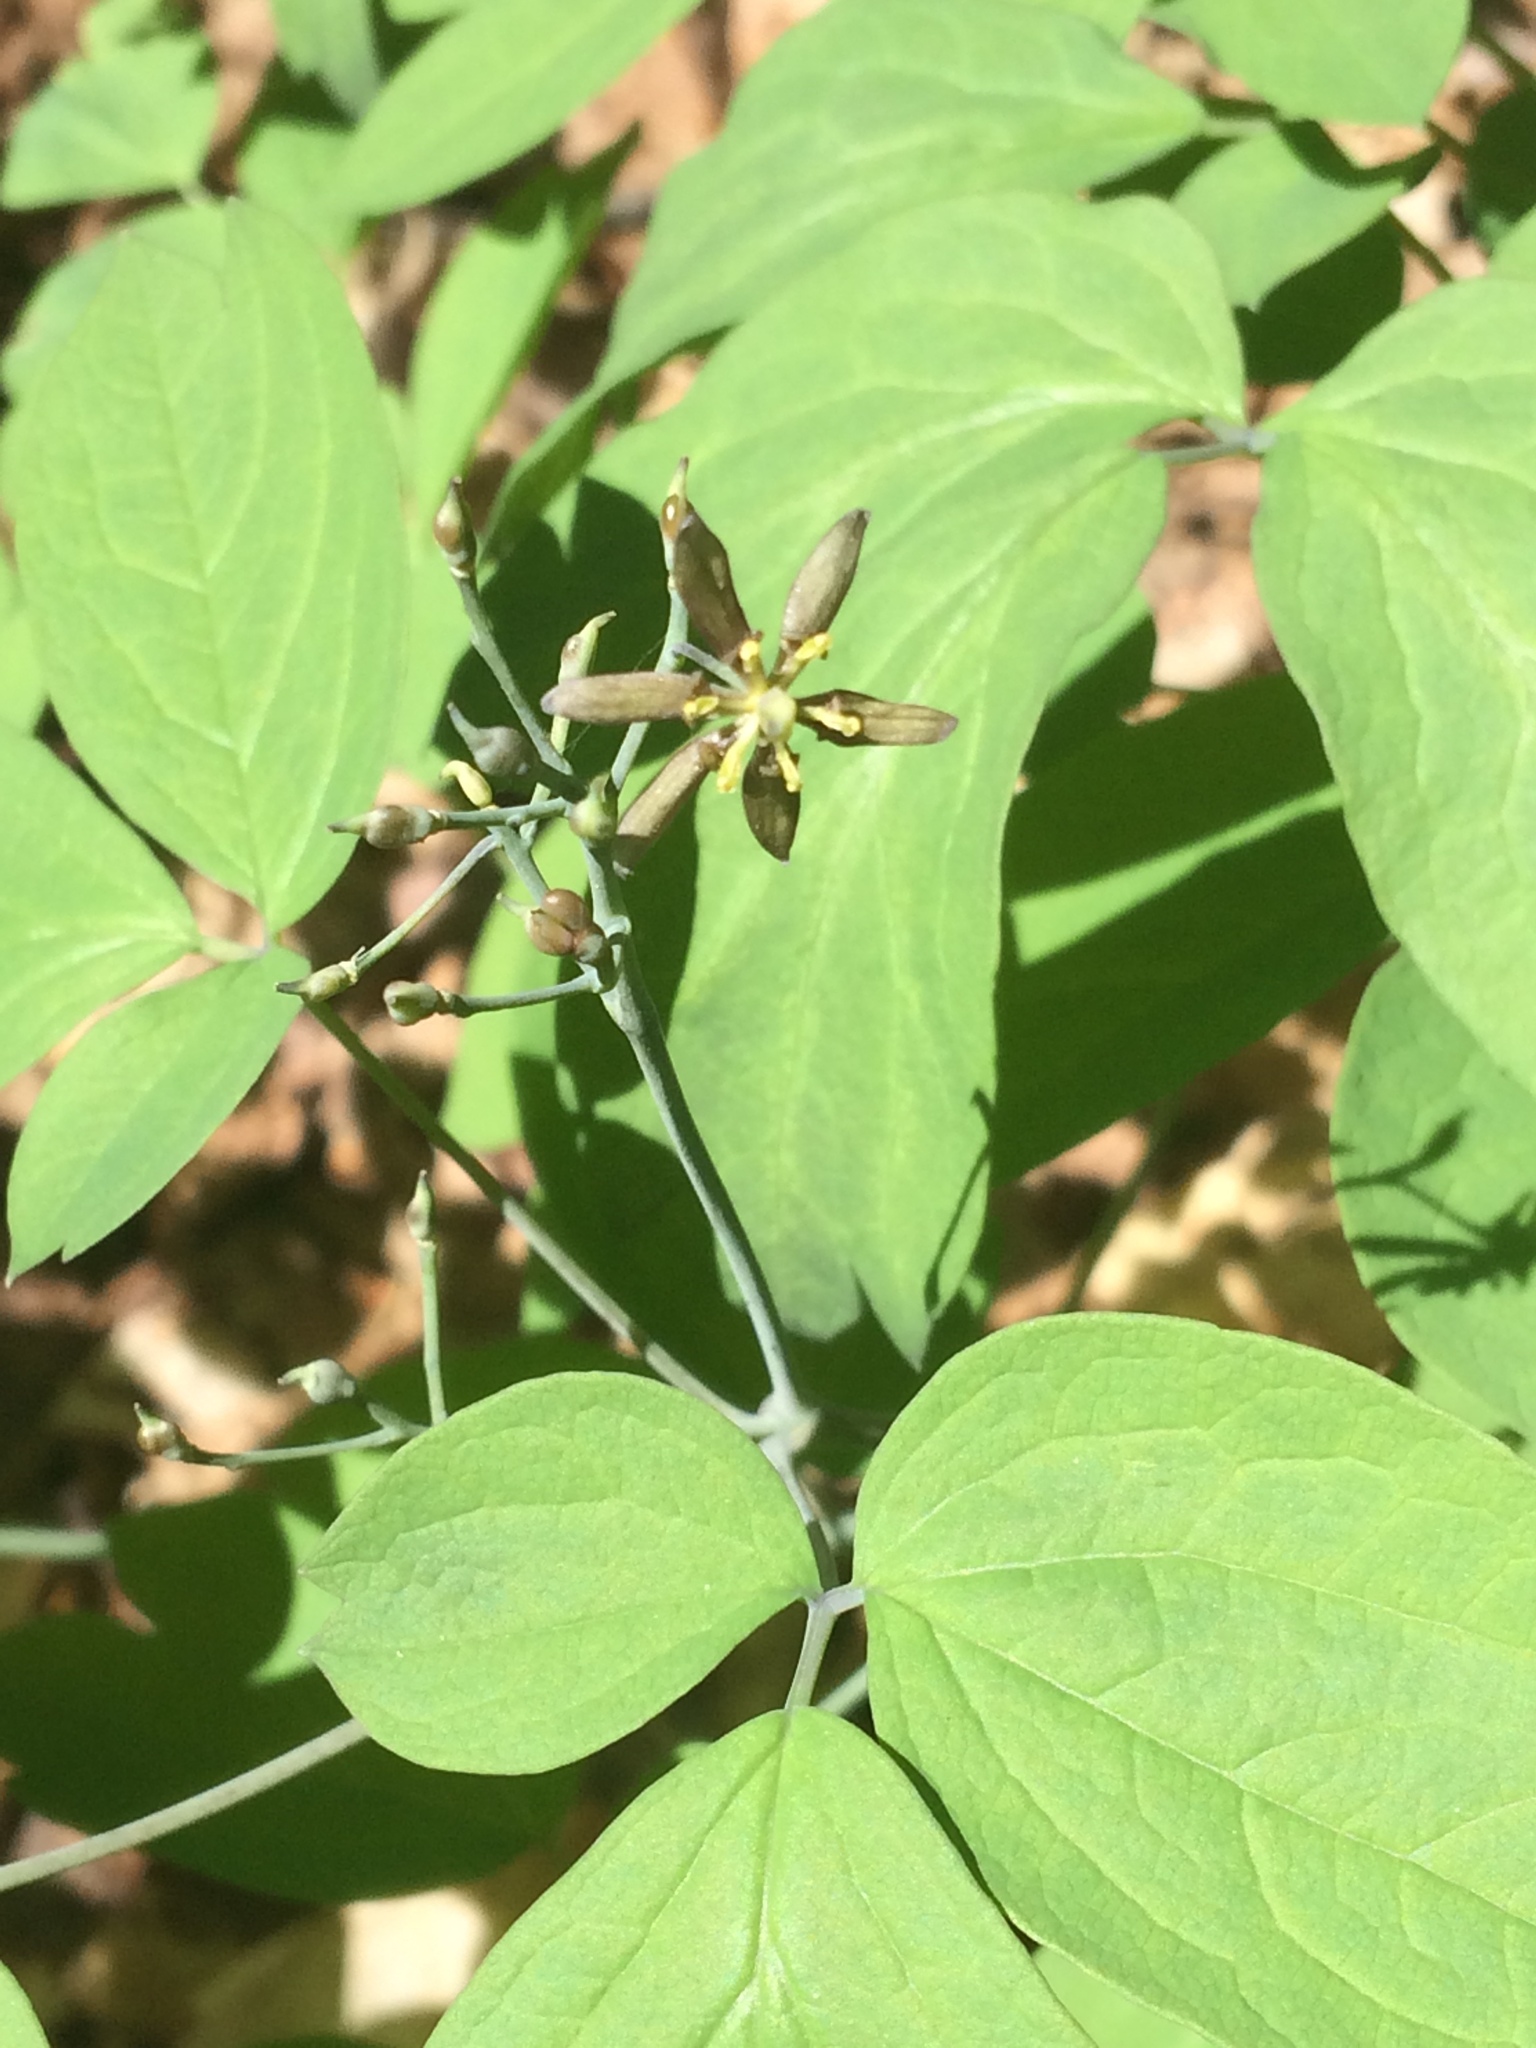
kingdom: Plantae
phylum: Tracheophyta
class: Magnoliopsida
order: Ranunculales
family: Berberidaceae
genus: Caulophyllum
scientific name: Caulophyllum giganteum
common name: Blue cohosh
